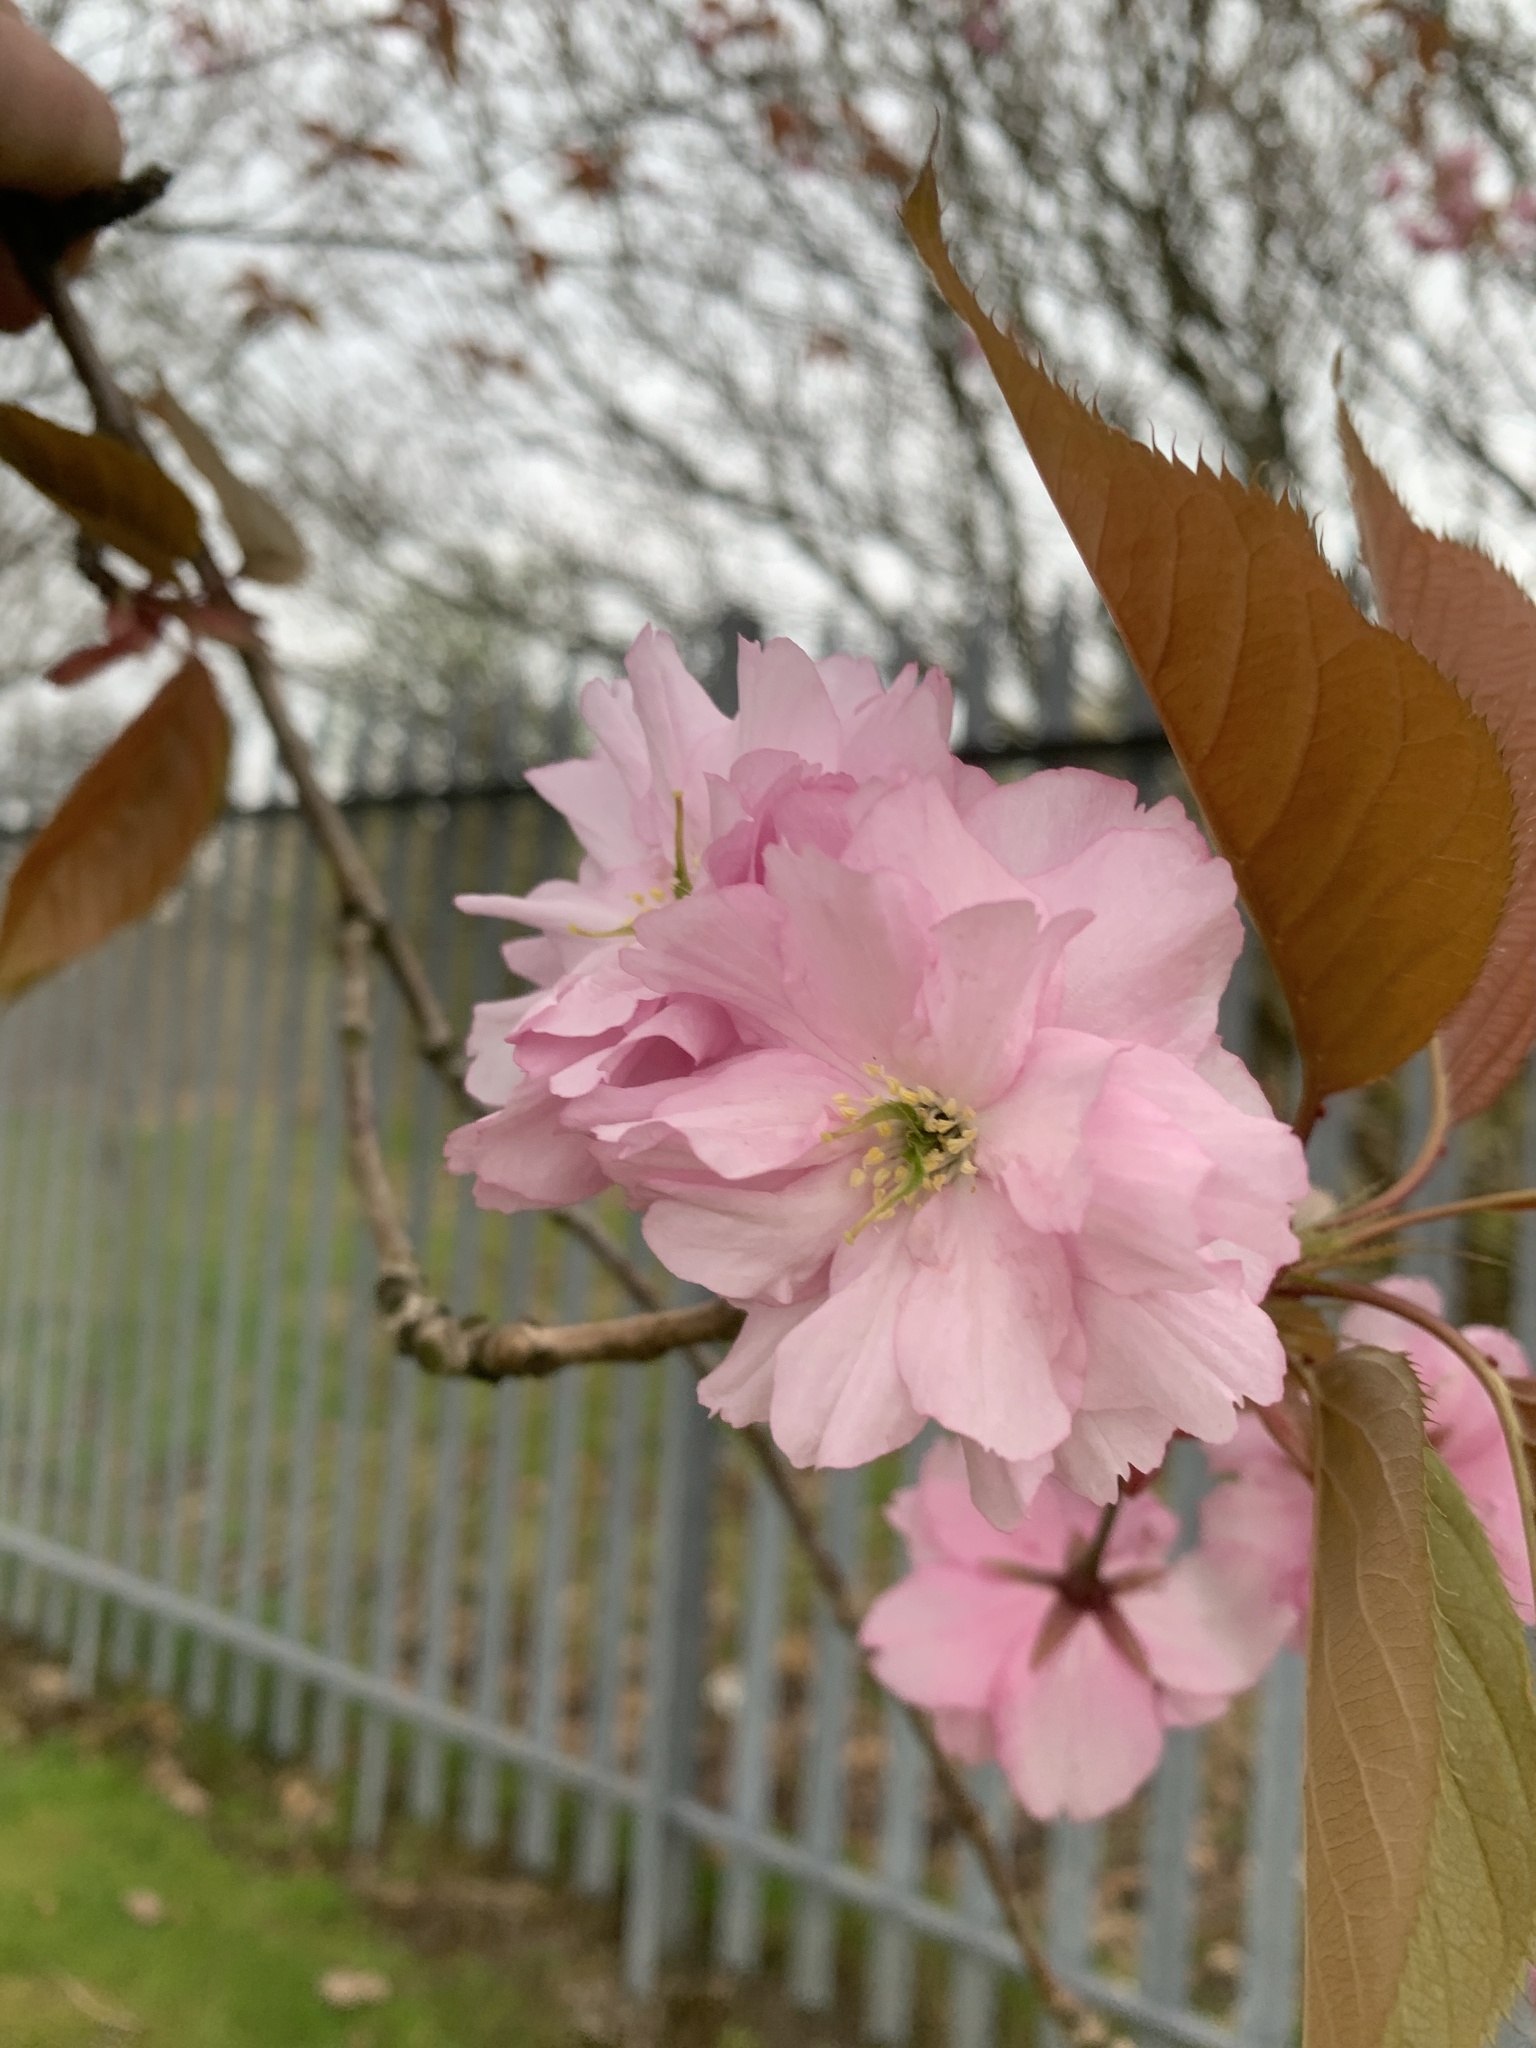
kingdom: Plantae
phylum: Tracheophyta
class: Magnoliopsida
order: Rosales
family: Rosaceae
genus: Prunus
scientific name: Prunus serrulata
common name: Japanese cherry
